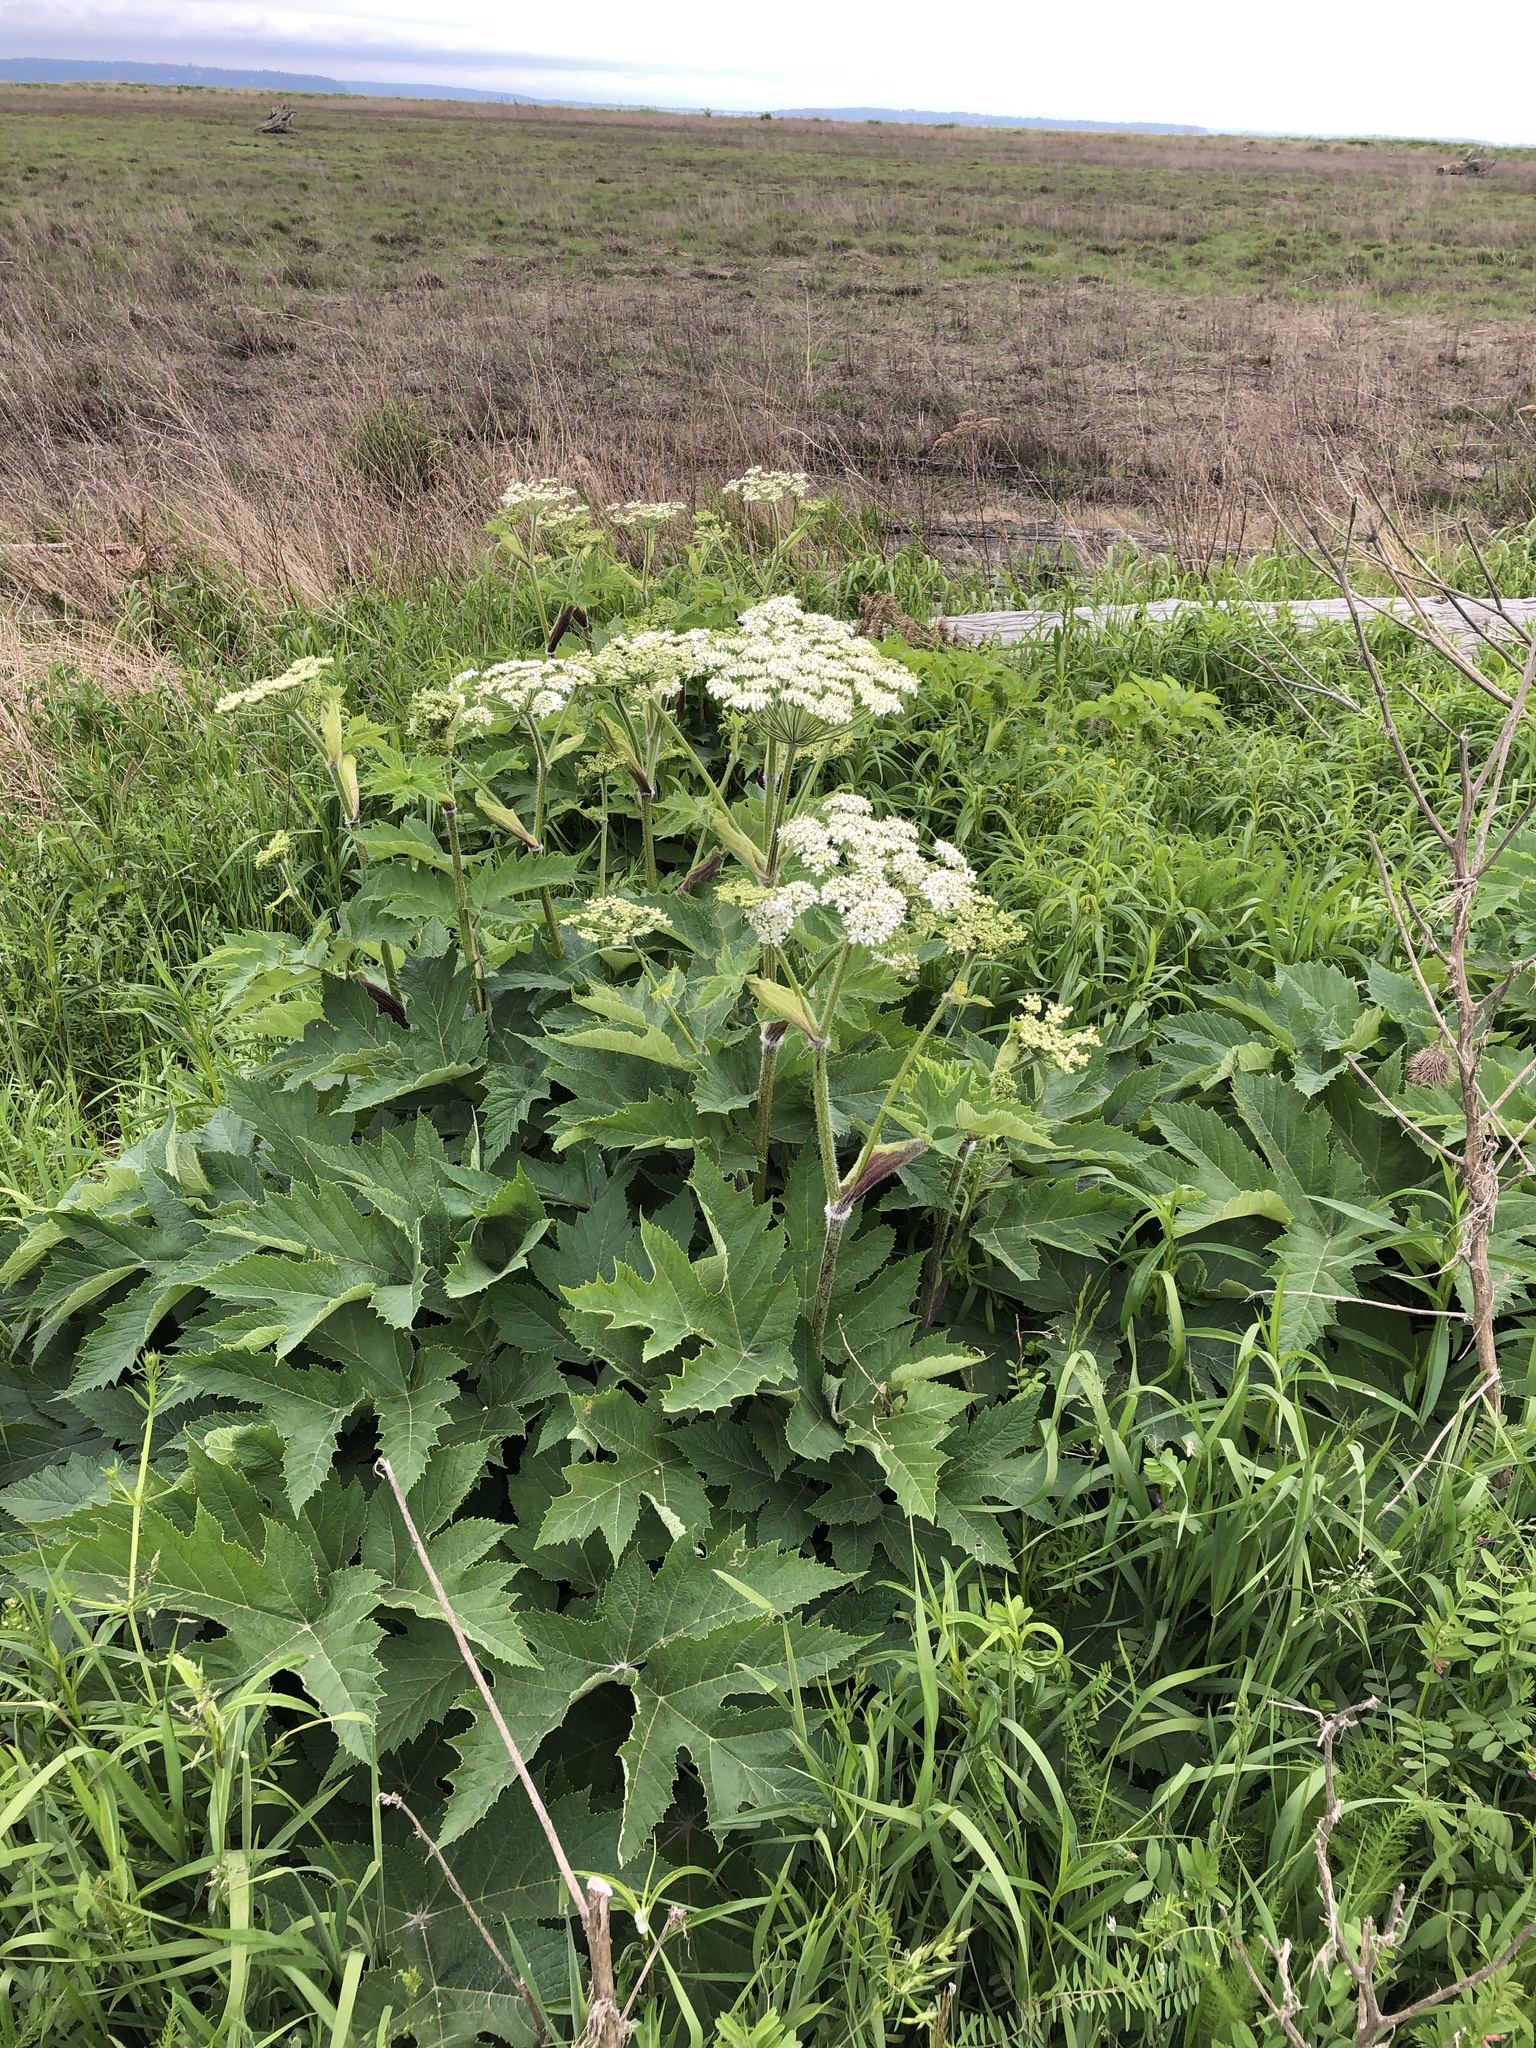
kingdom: Plantae
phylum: Tracheophyta
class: Magnoliopsida
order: Apiales
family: Apiaceae
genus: Heracleum
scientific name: Heracleum maximum
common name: American cow parsnip
